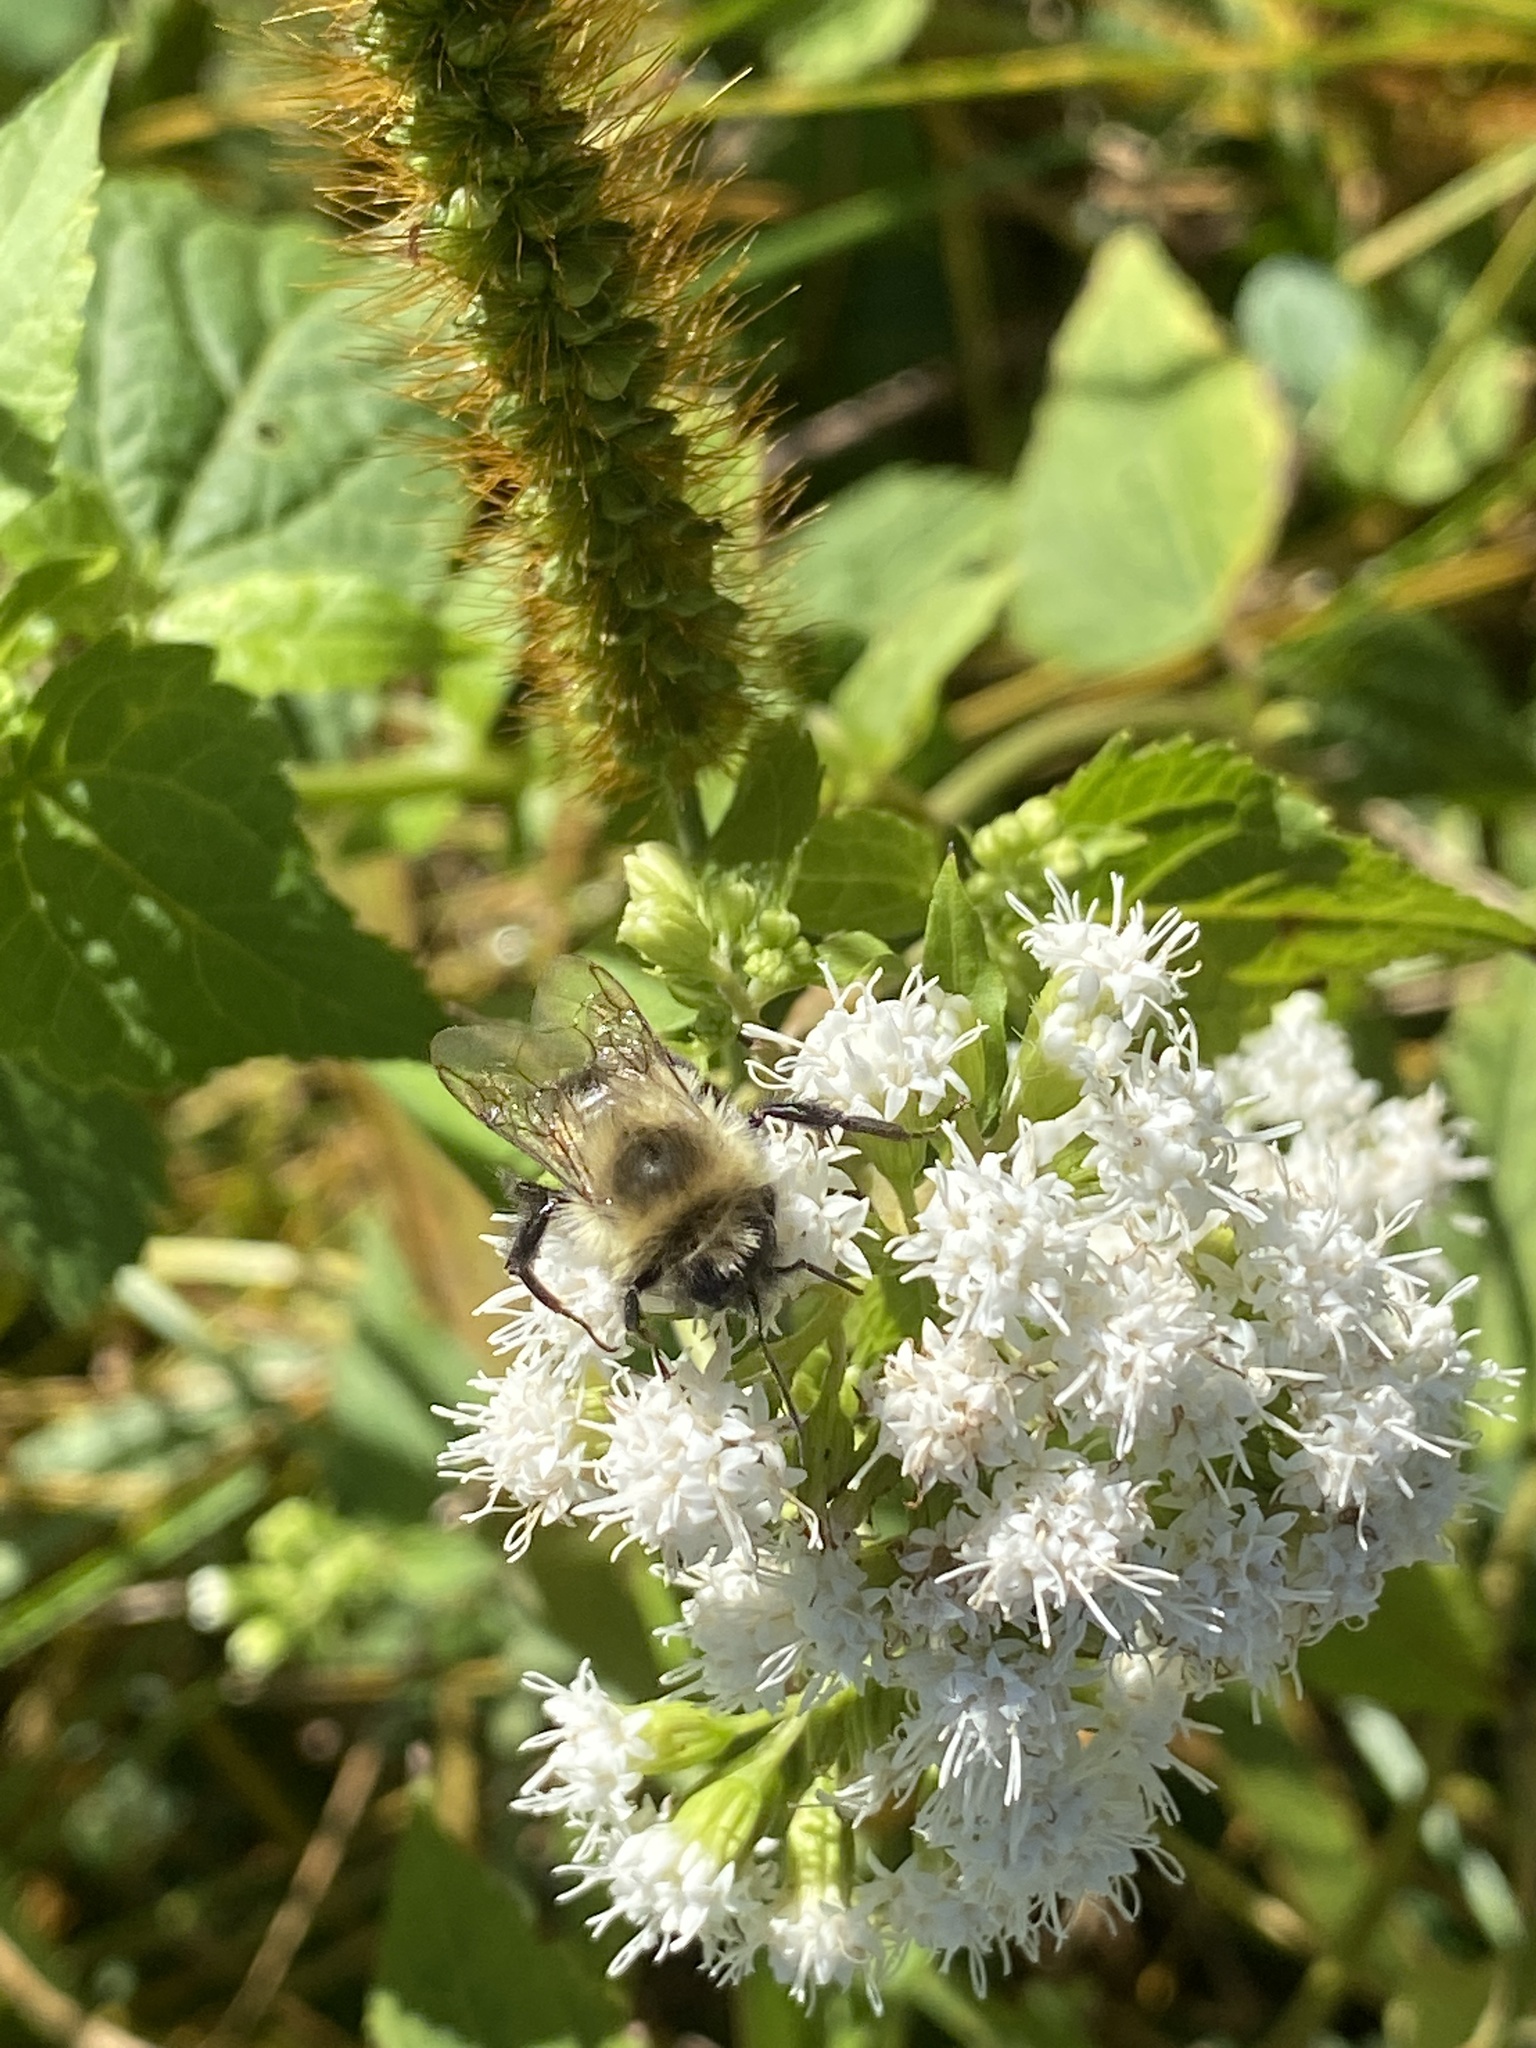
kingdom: Animalia
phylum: Arthropoda
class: Insecta
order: Hymenoptera
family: Apidae
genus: Bombus
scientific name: Bombus impatiens
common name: Common eastern bumble bee
